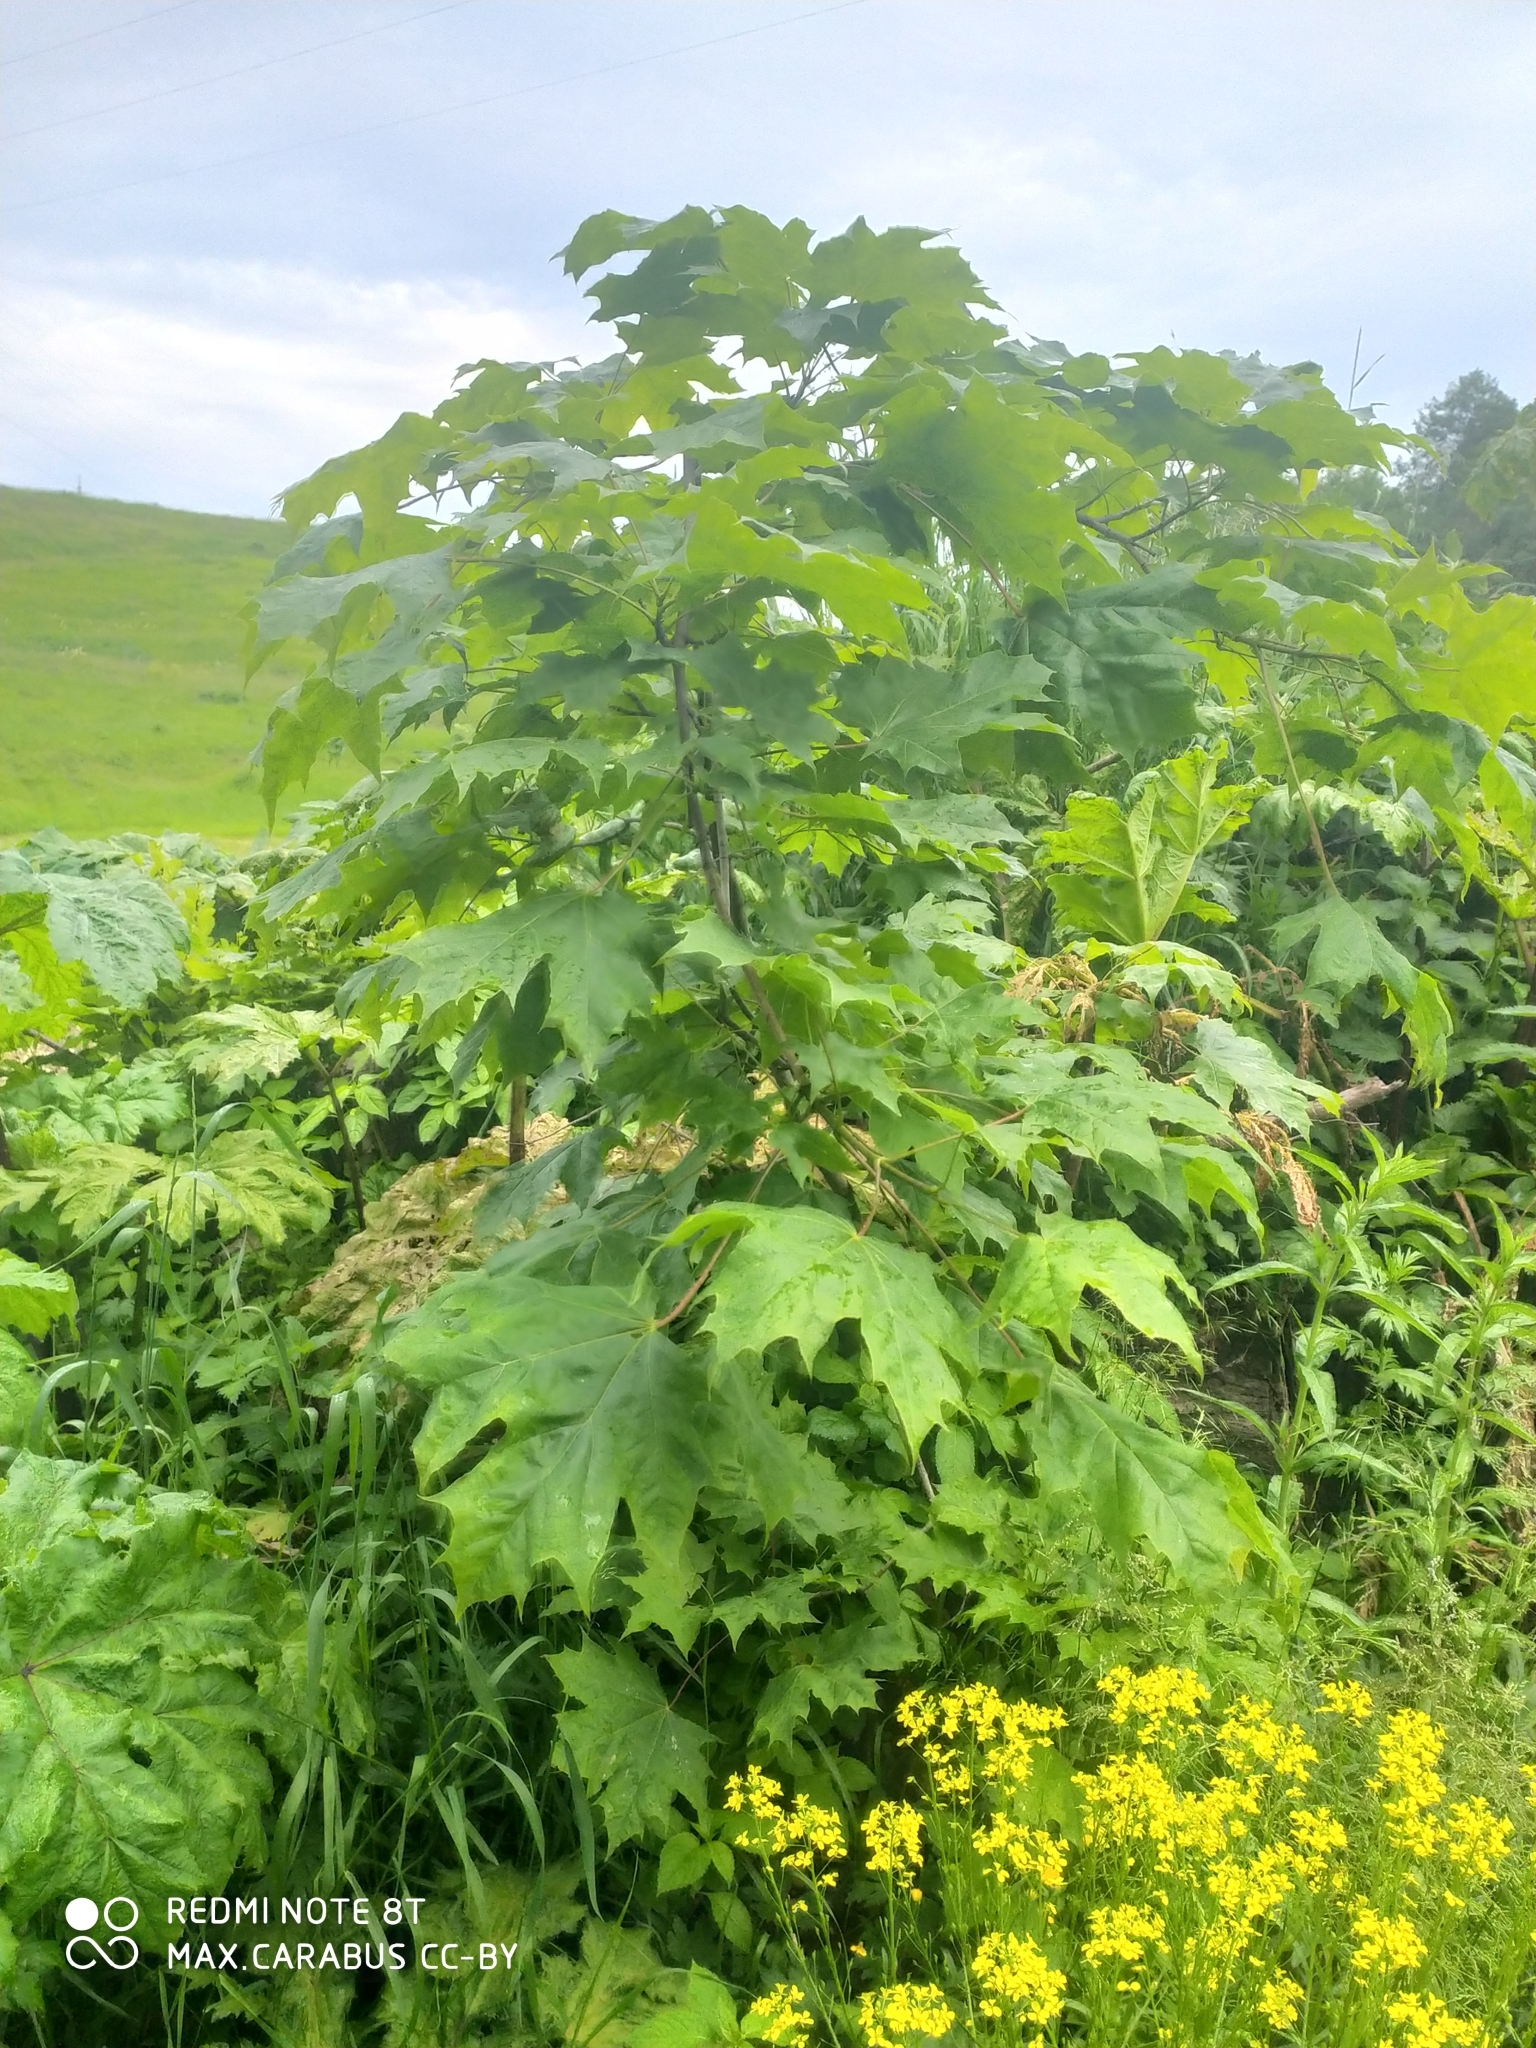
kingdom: Plantae
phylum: Tracheophyta
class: Magnoliopsida
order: Sapindales
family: Sapindaceae
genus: Acer
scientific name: Acer platanoides
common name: Norway maple
